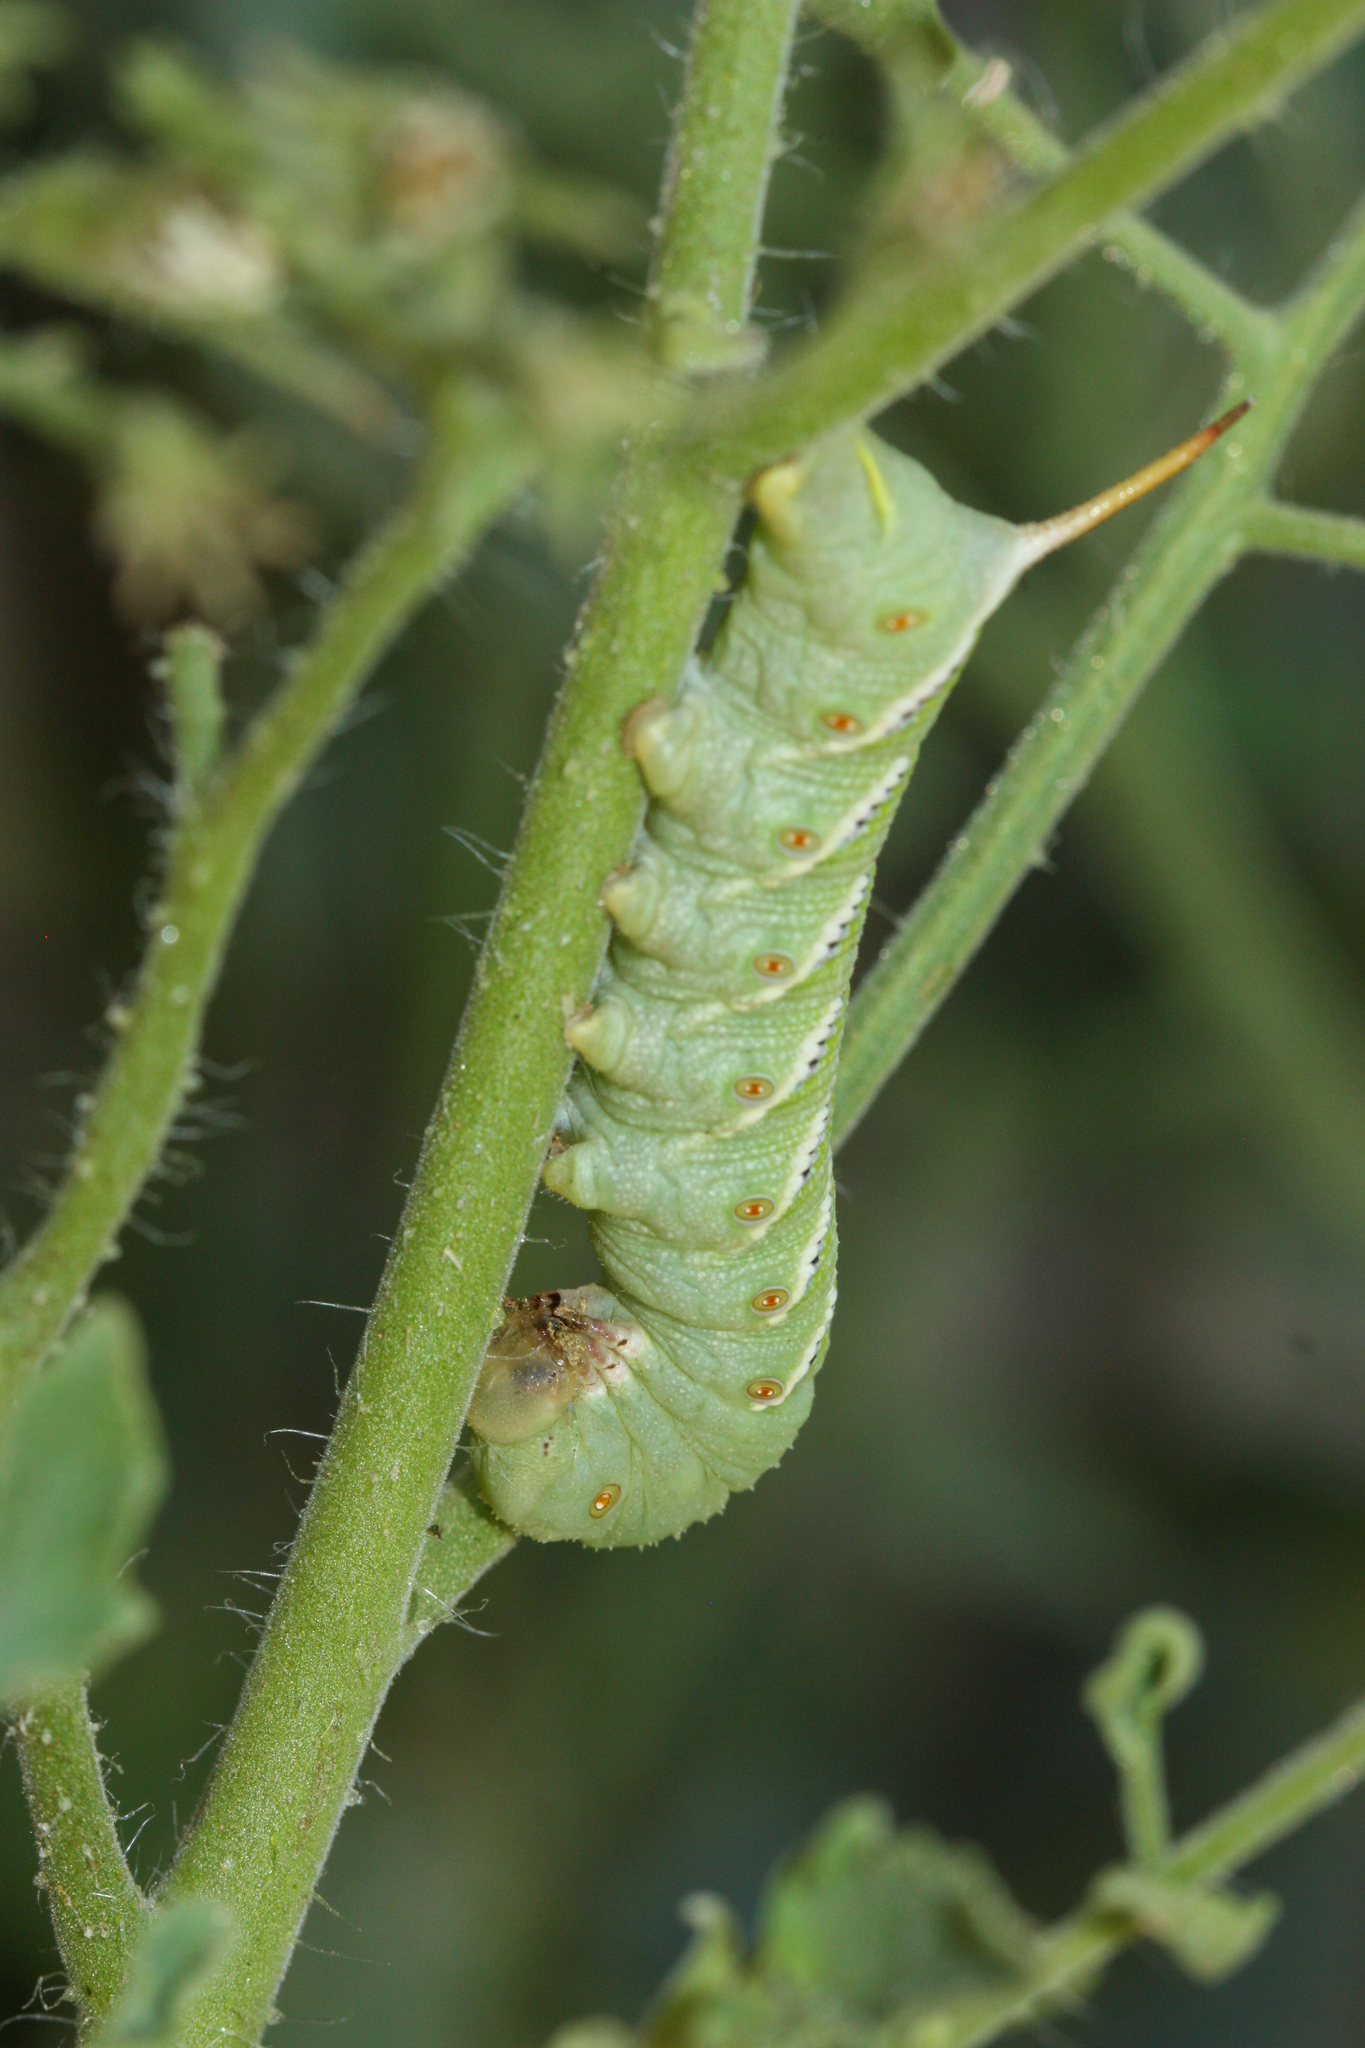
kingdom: Animalia
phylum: Arthropoda
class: Insecta
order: Lepidoptera
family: Sphingidae
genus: Manduca
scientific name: Manduca sexta
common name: Carolina sphinx
